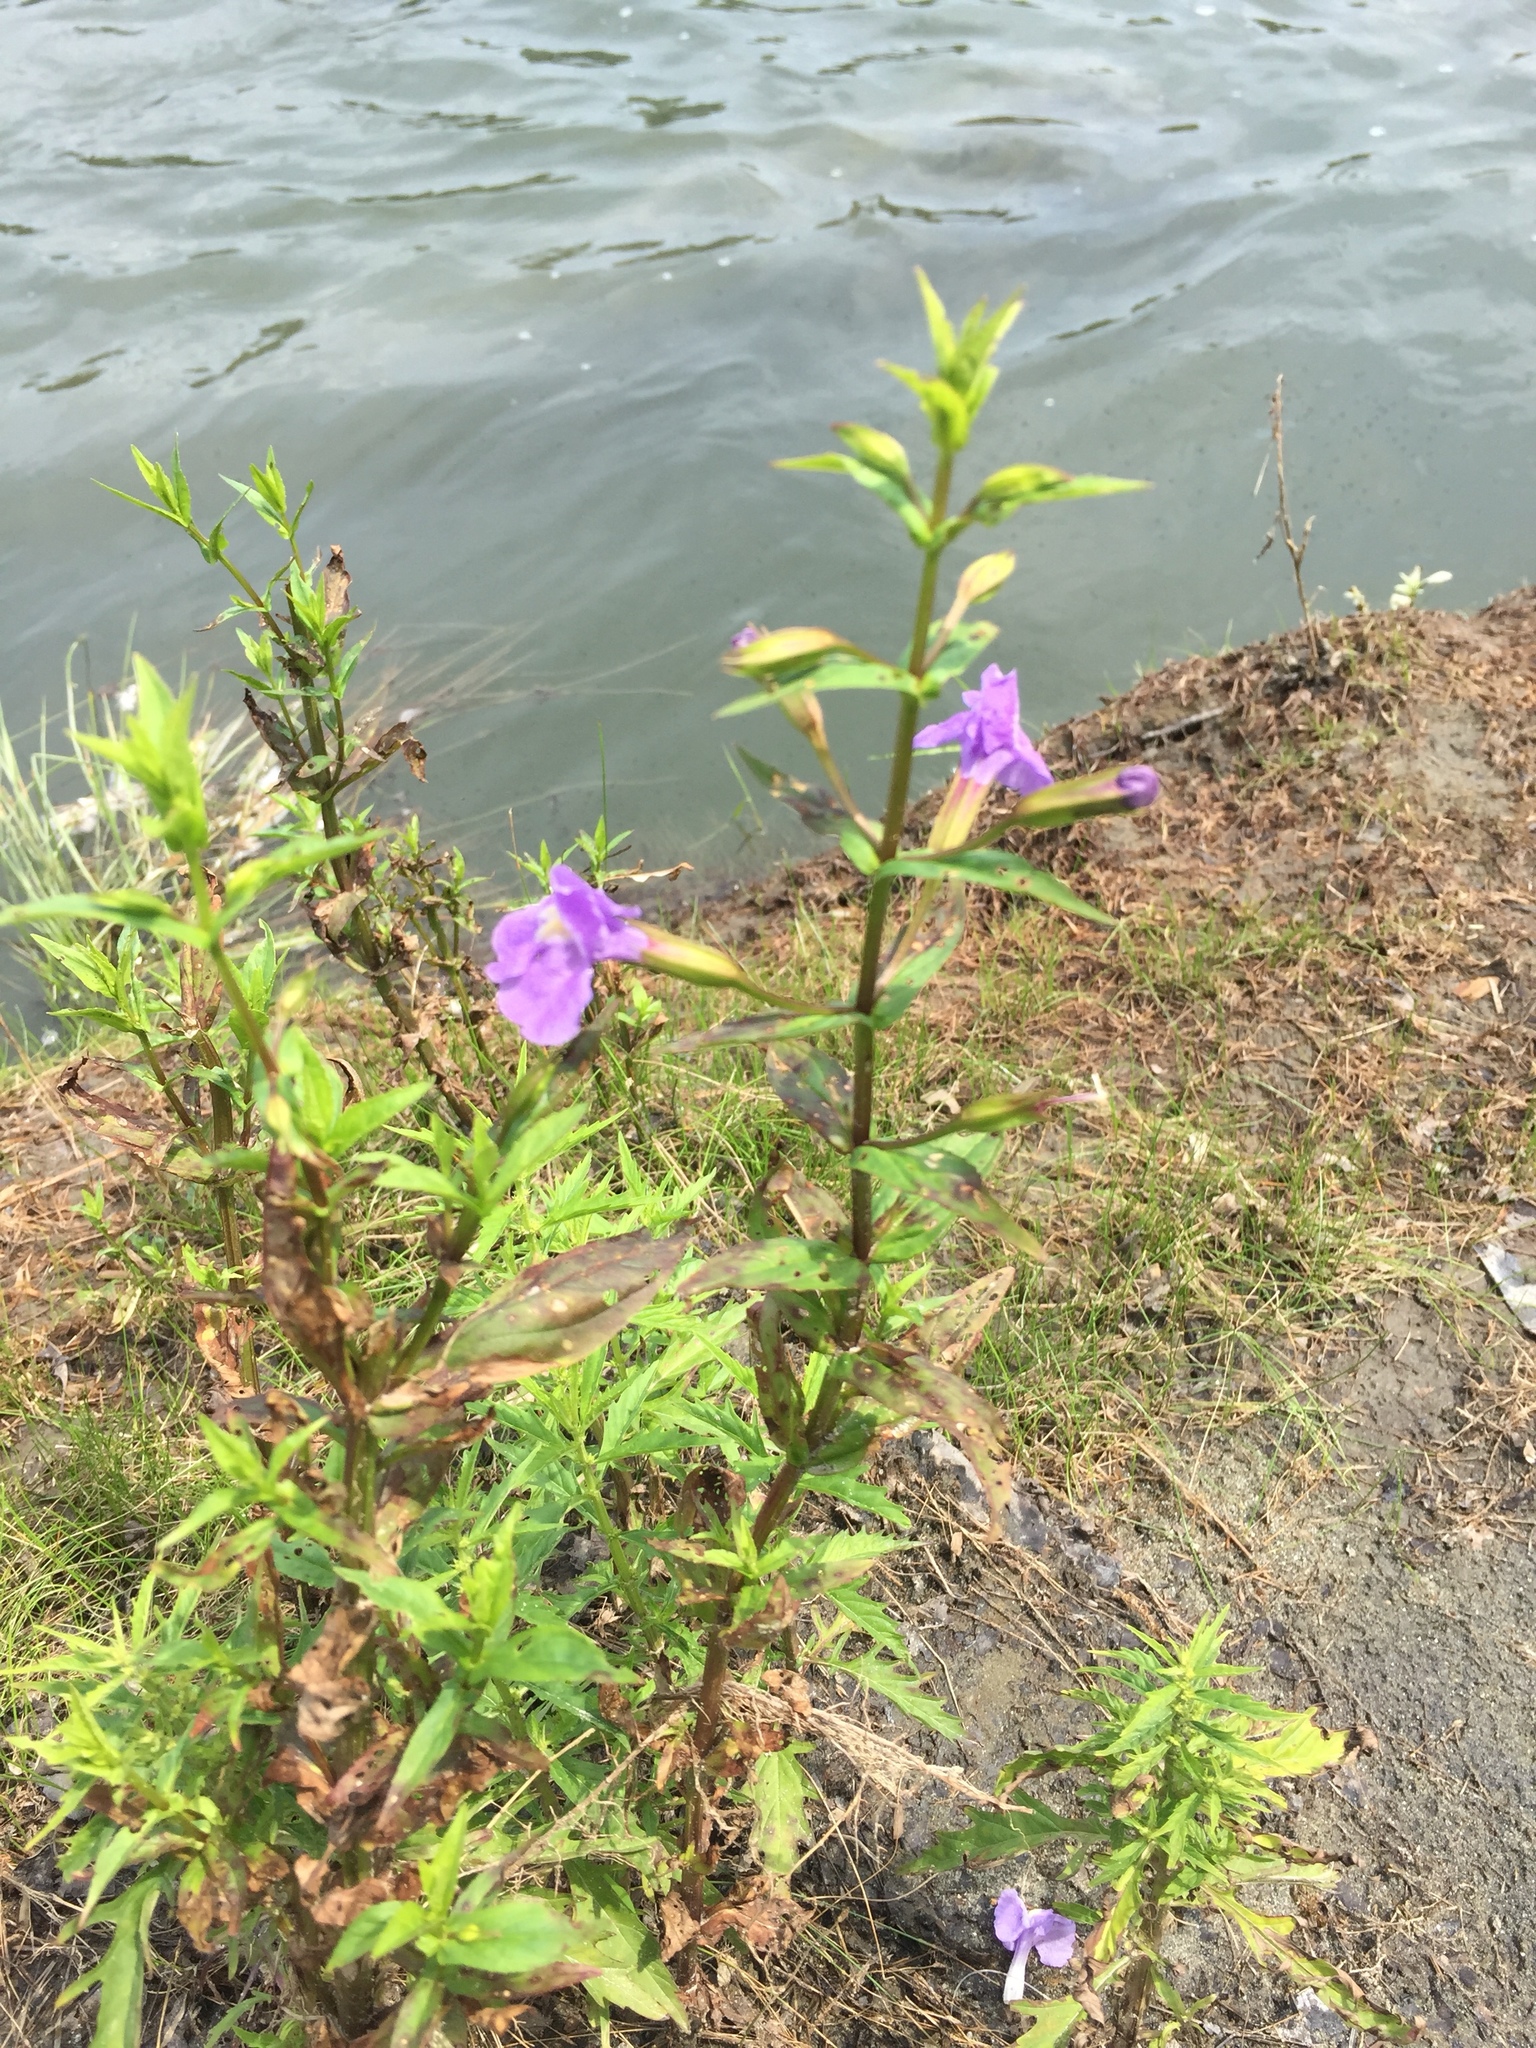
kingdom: Plantae
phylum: Tracheophyta
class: Magnoliopsida
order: Lamiales
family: Phrymaceae
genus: Mimulus
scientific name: Mimulus ringens
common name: Allegheny monkeyflower
